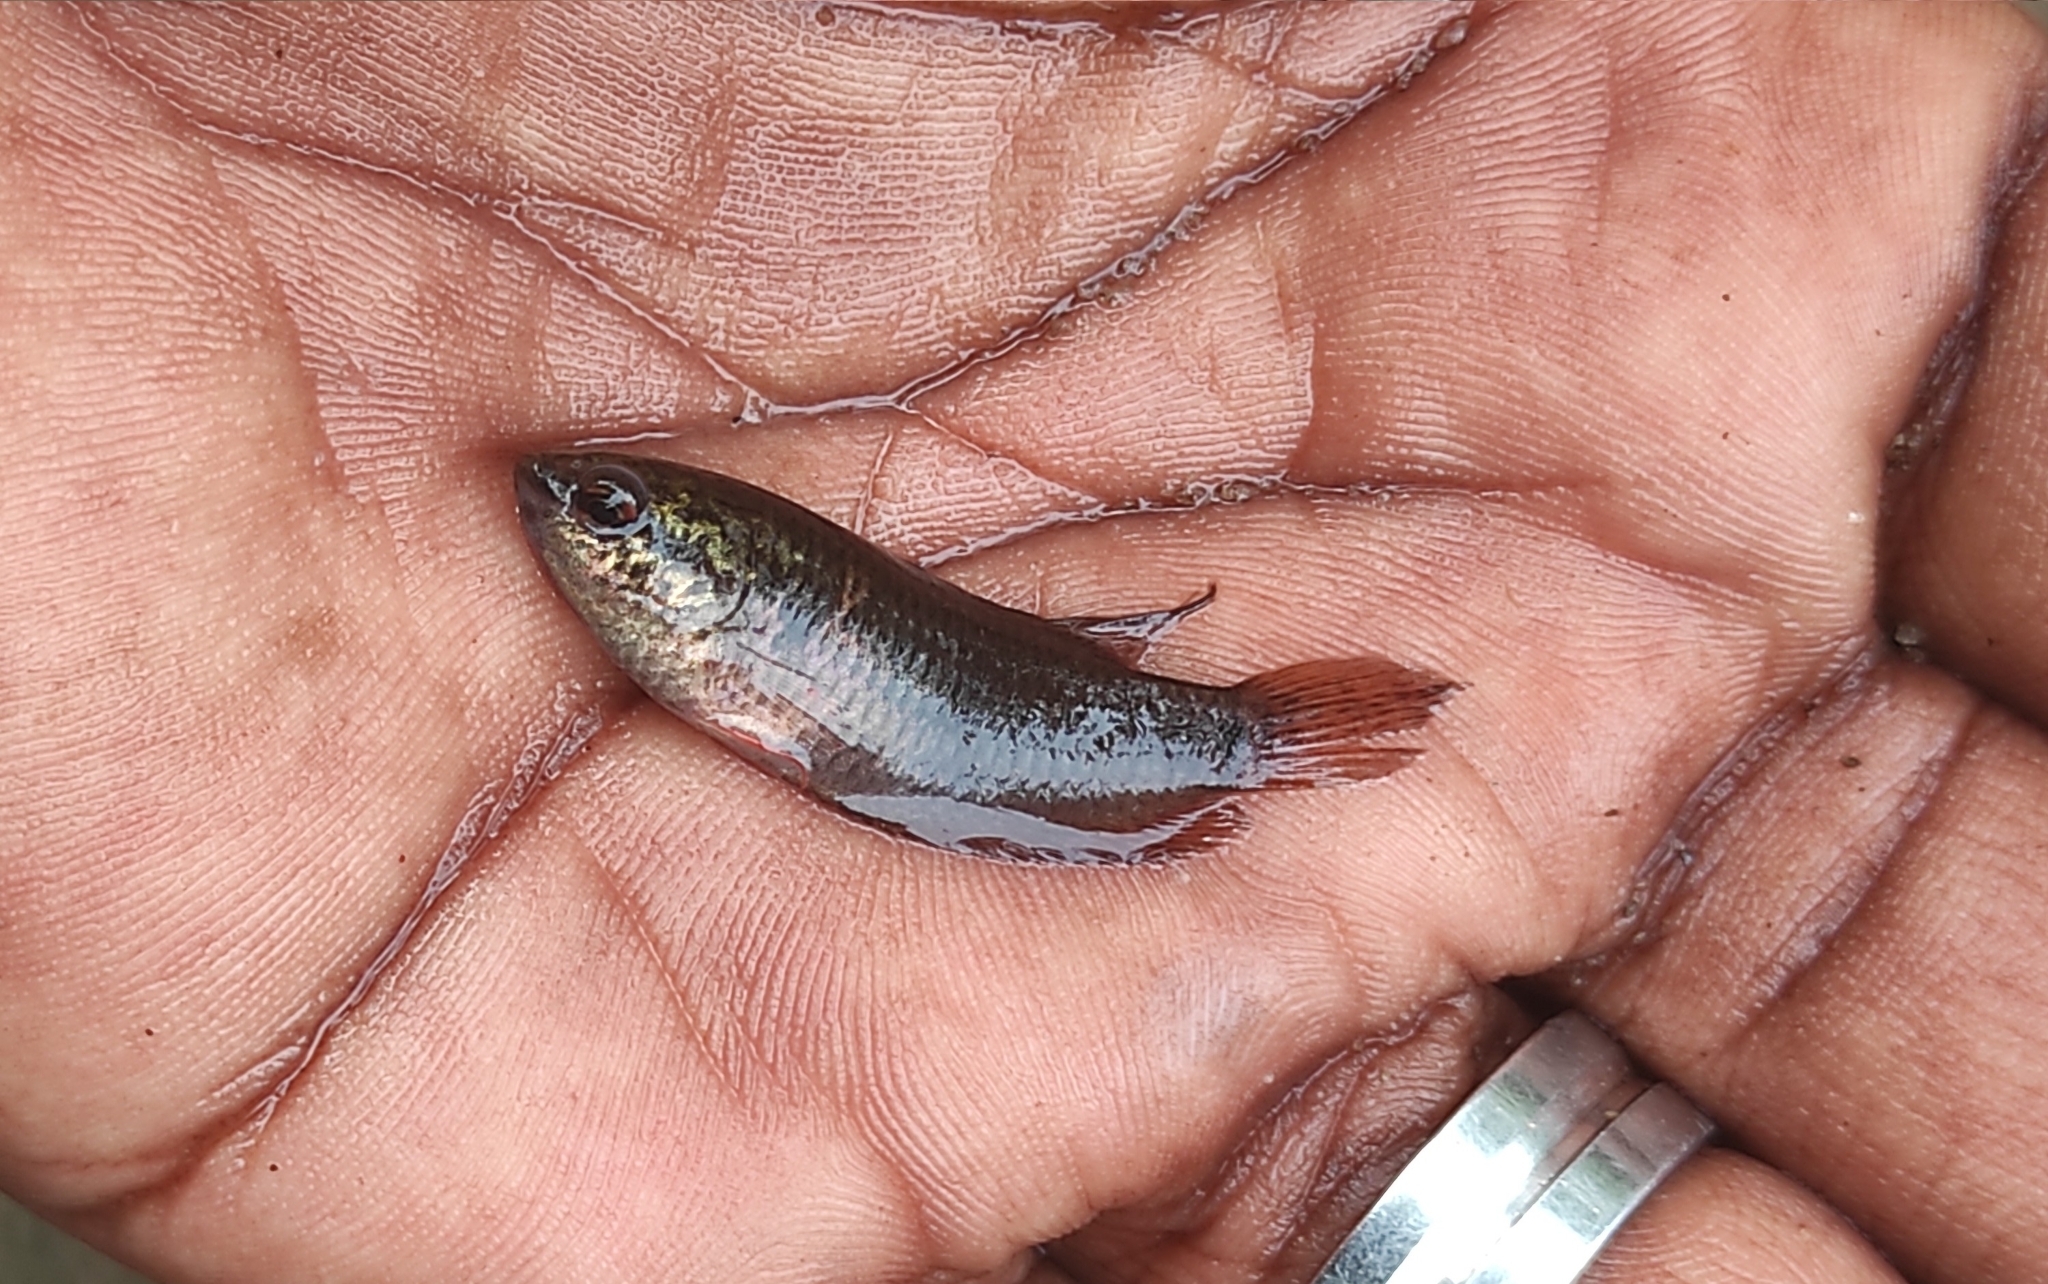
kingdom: Animalia
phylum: Chordata
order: Perciformes
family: Osphronemidae
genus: Pseudosphromenus
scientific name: Pseudosphromenus cupanus
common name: Spiketail paradisefish
